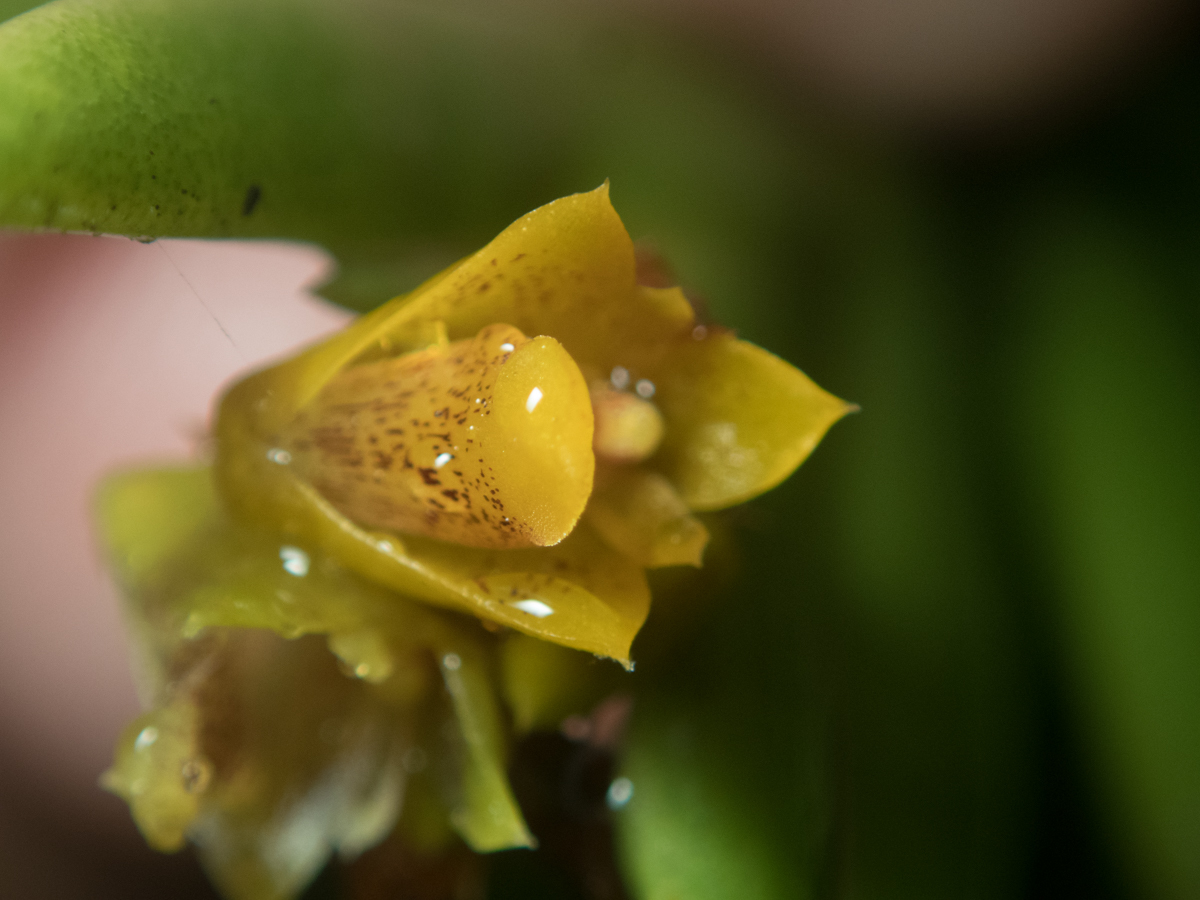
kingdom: Plantae
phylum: Tracheophyta
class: Liliopsida
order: Asparagales
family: Orchidaceae
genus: Oxystophyllum
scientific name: Oxystophyllum carnosum
